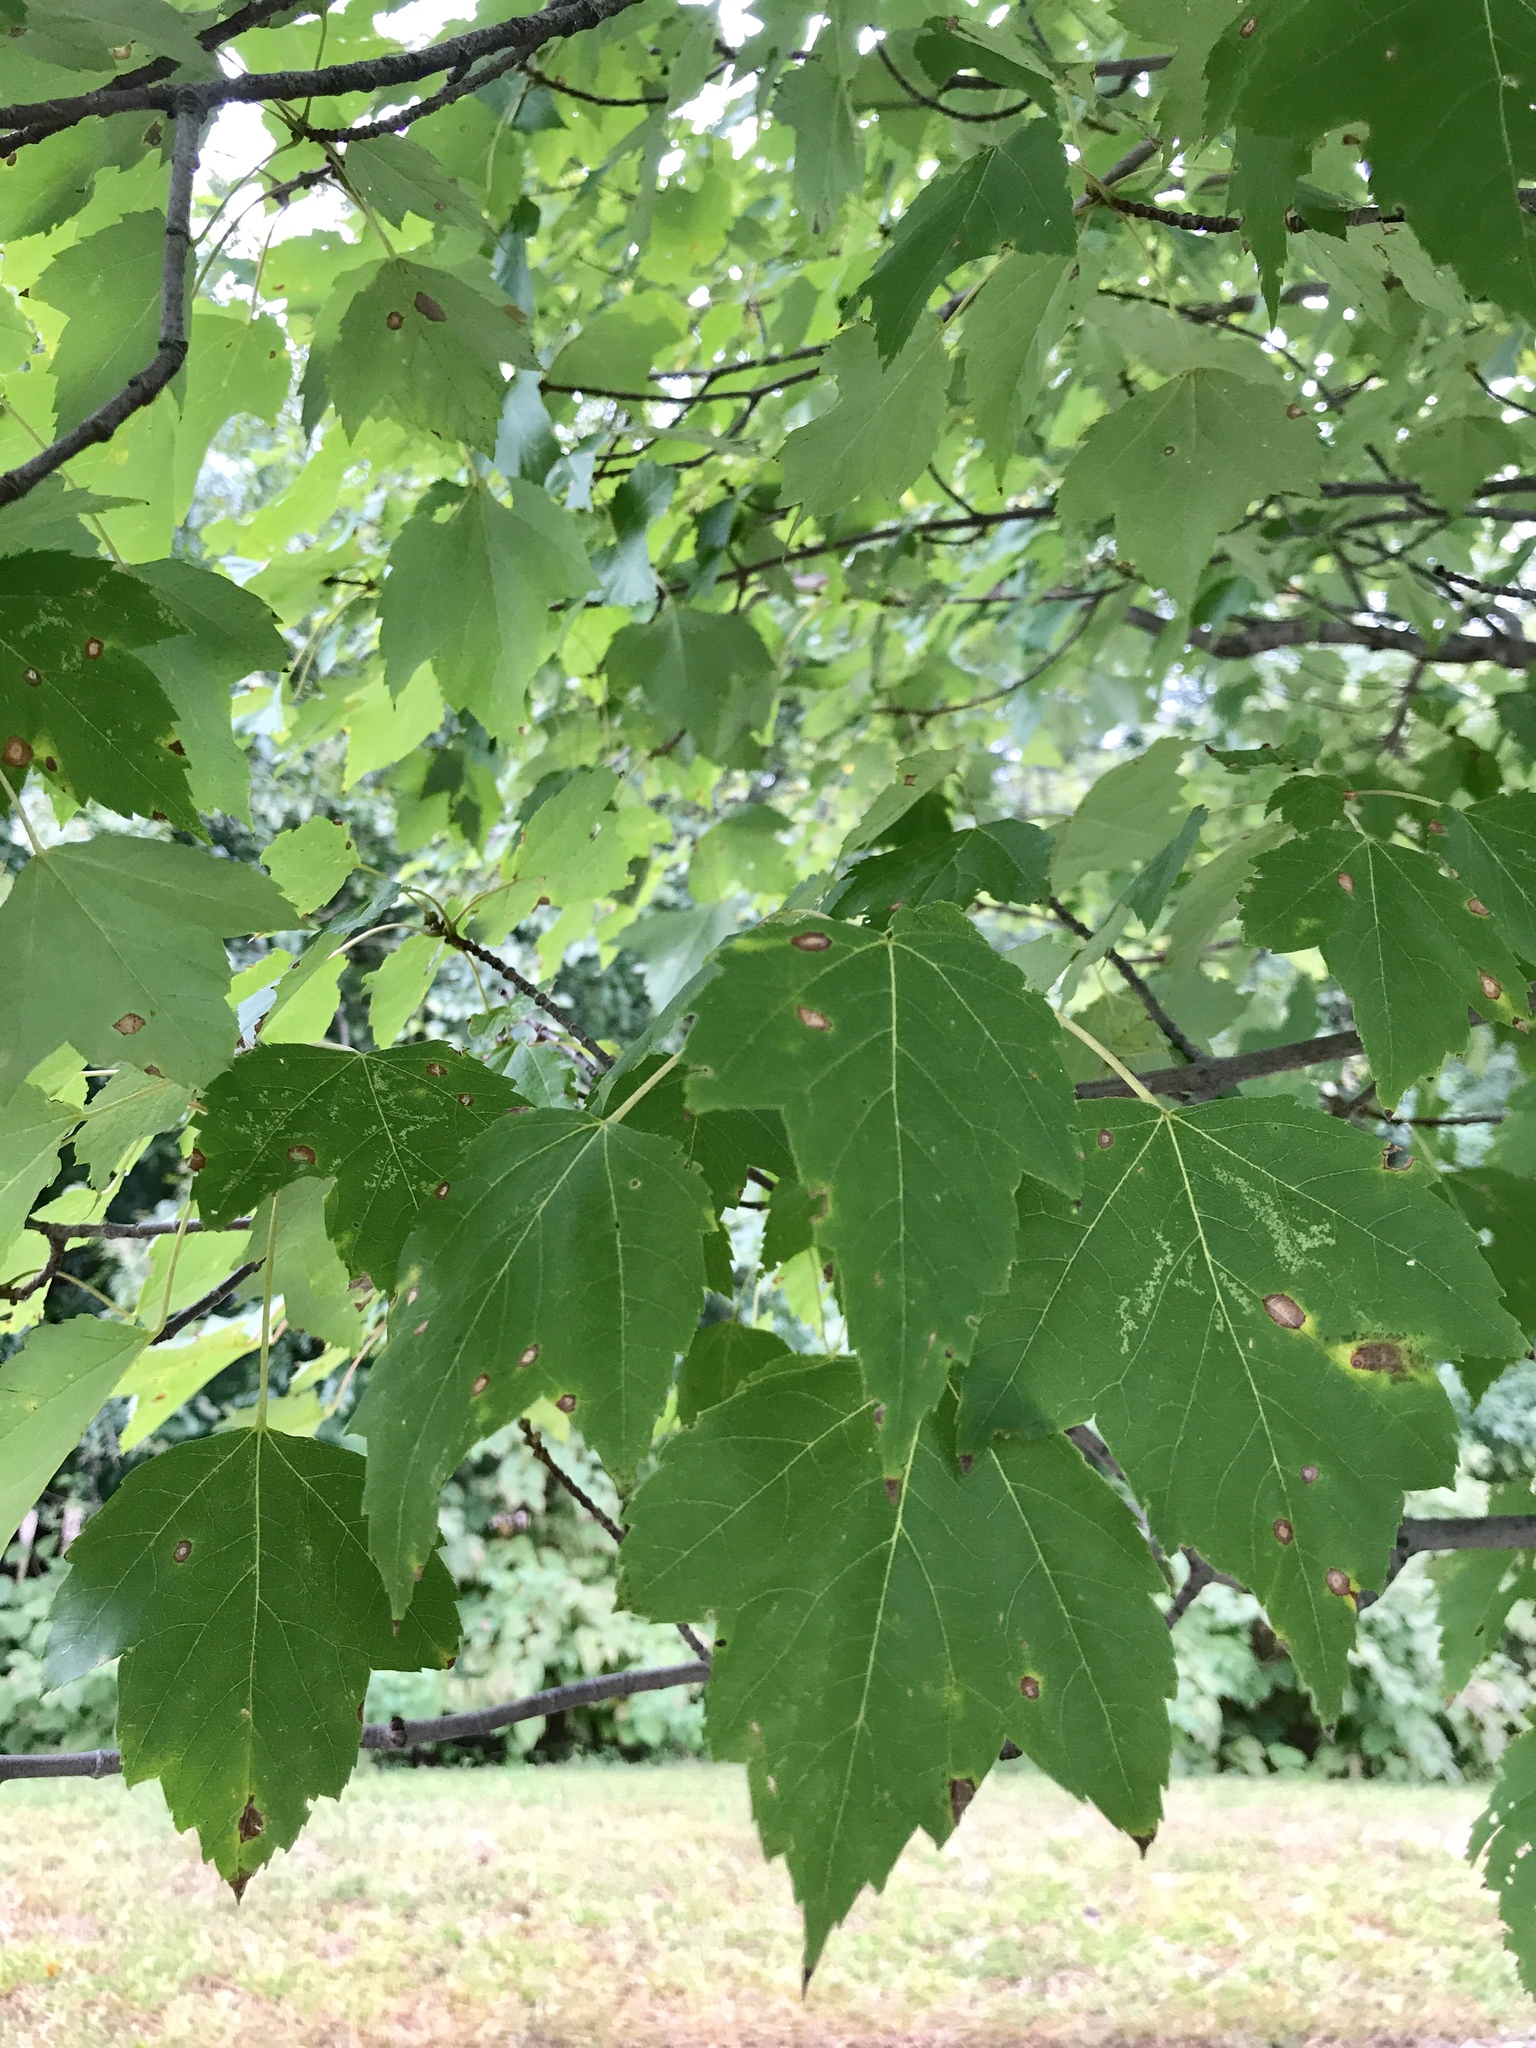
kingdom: Plantae
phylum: Tracheophyta
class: Magnoliopsida
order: Sapindales
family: Sapindaceae
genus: Acer
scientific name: Acer rubrum
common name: Red maple
